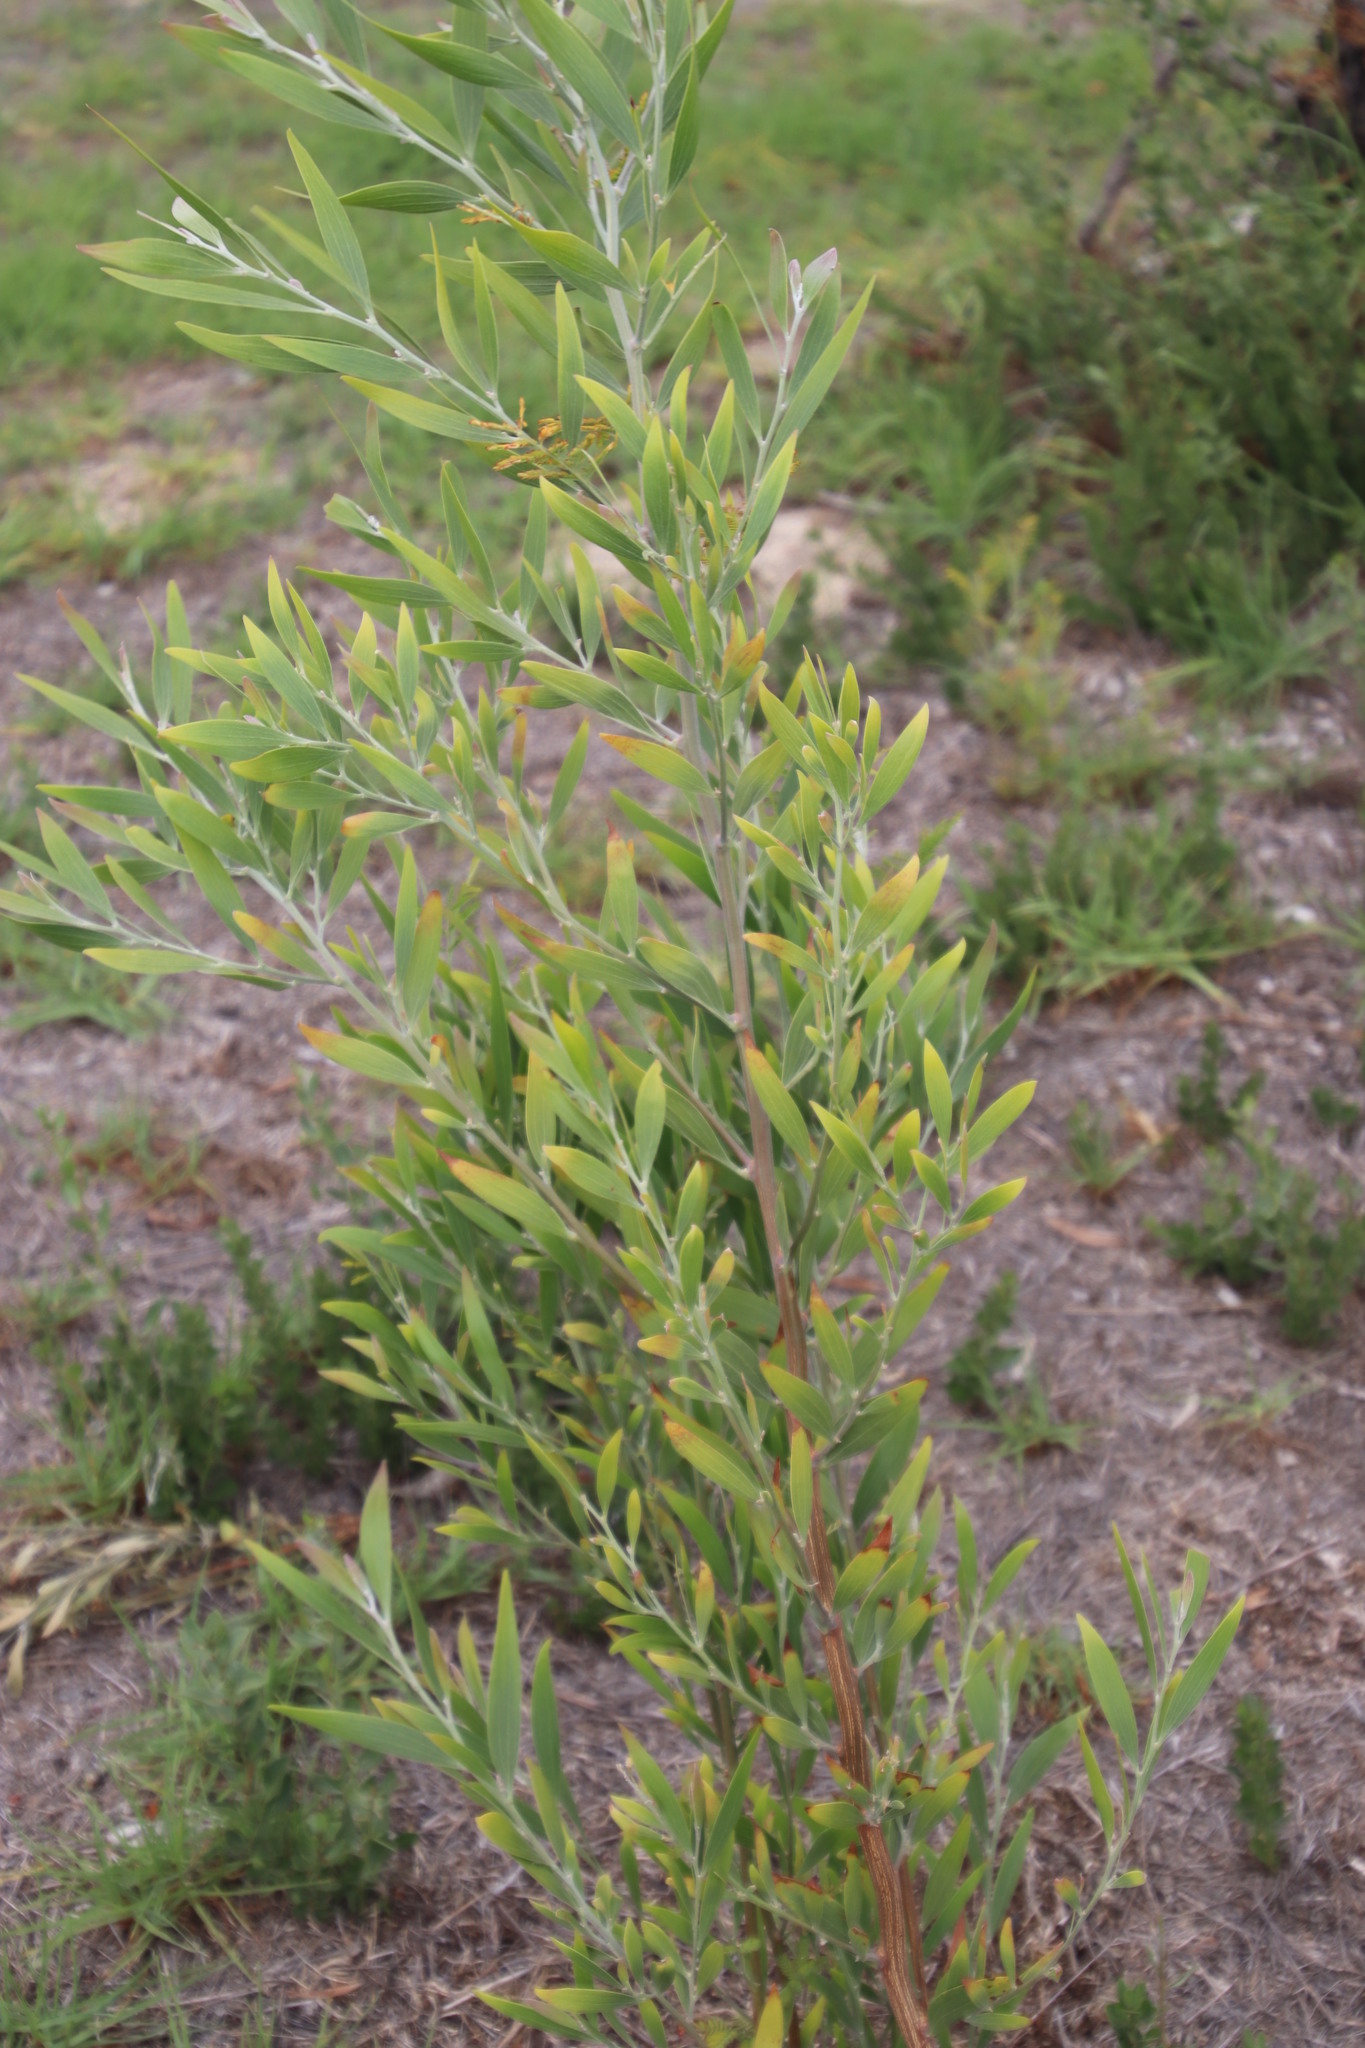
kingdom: Plantae
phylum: Tracheophyta
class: Magnoliopsida
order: Fabales
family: Fabaceae
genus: Acacia
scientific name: Acacia melanoxylon
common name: Blackwood
